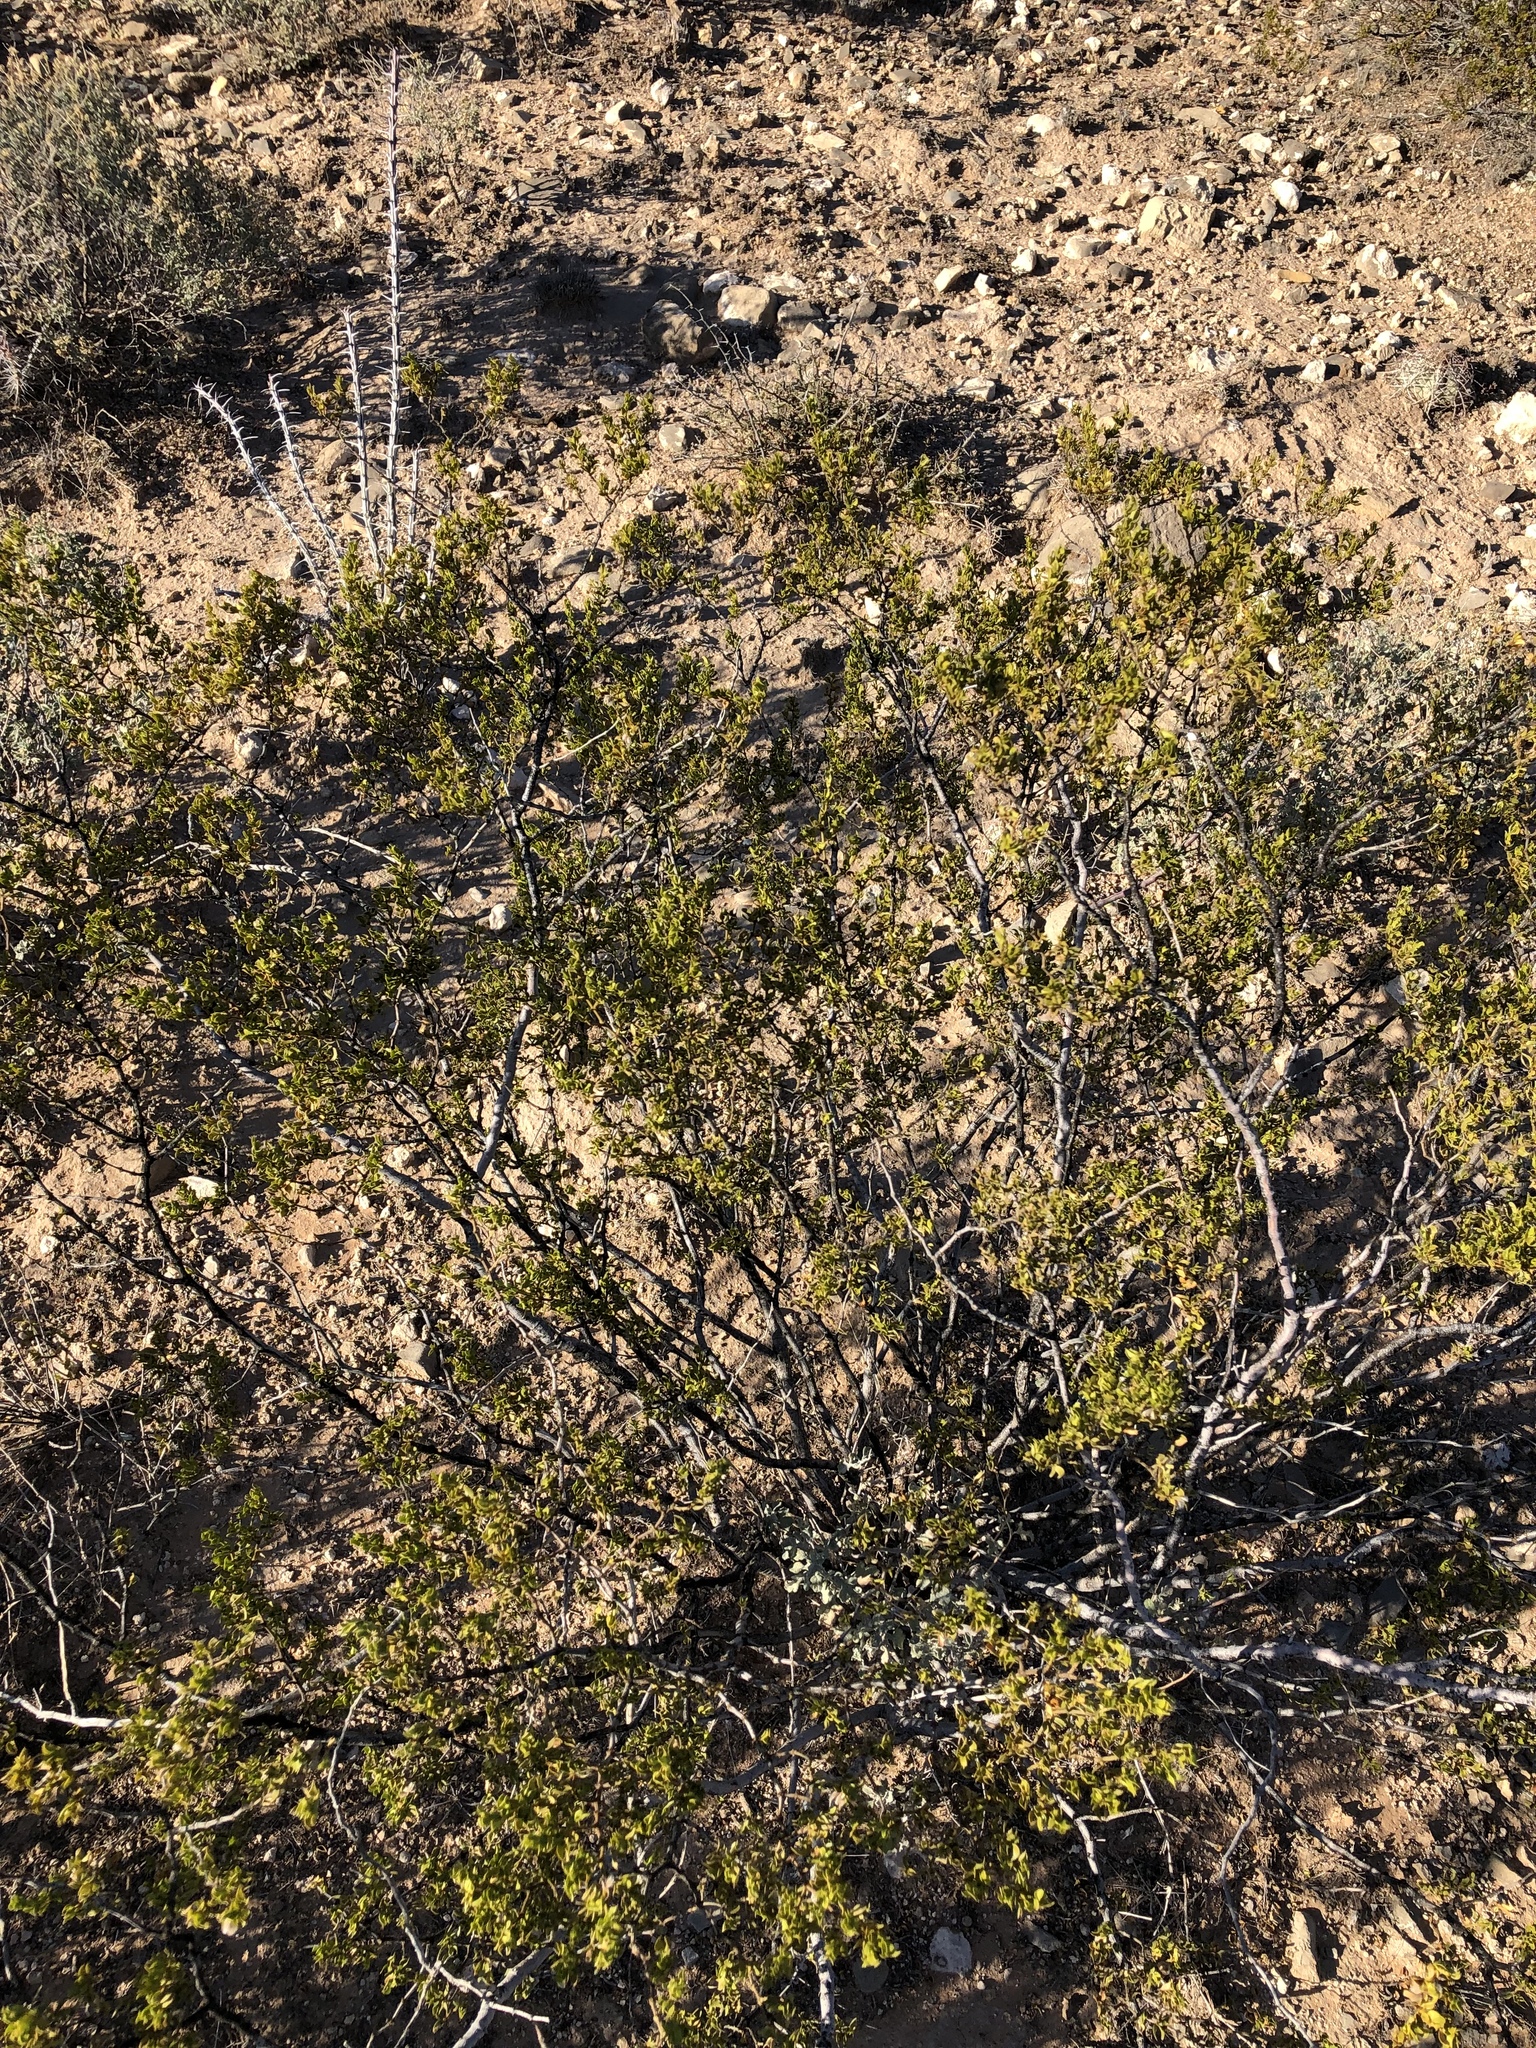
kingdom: Plantae
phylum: Tracheophyta
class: Magnoliopsida
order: Zygophyllales
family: Zygophyllaceae
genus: Larrea
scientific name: Larrea tridentata
